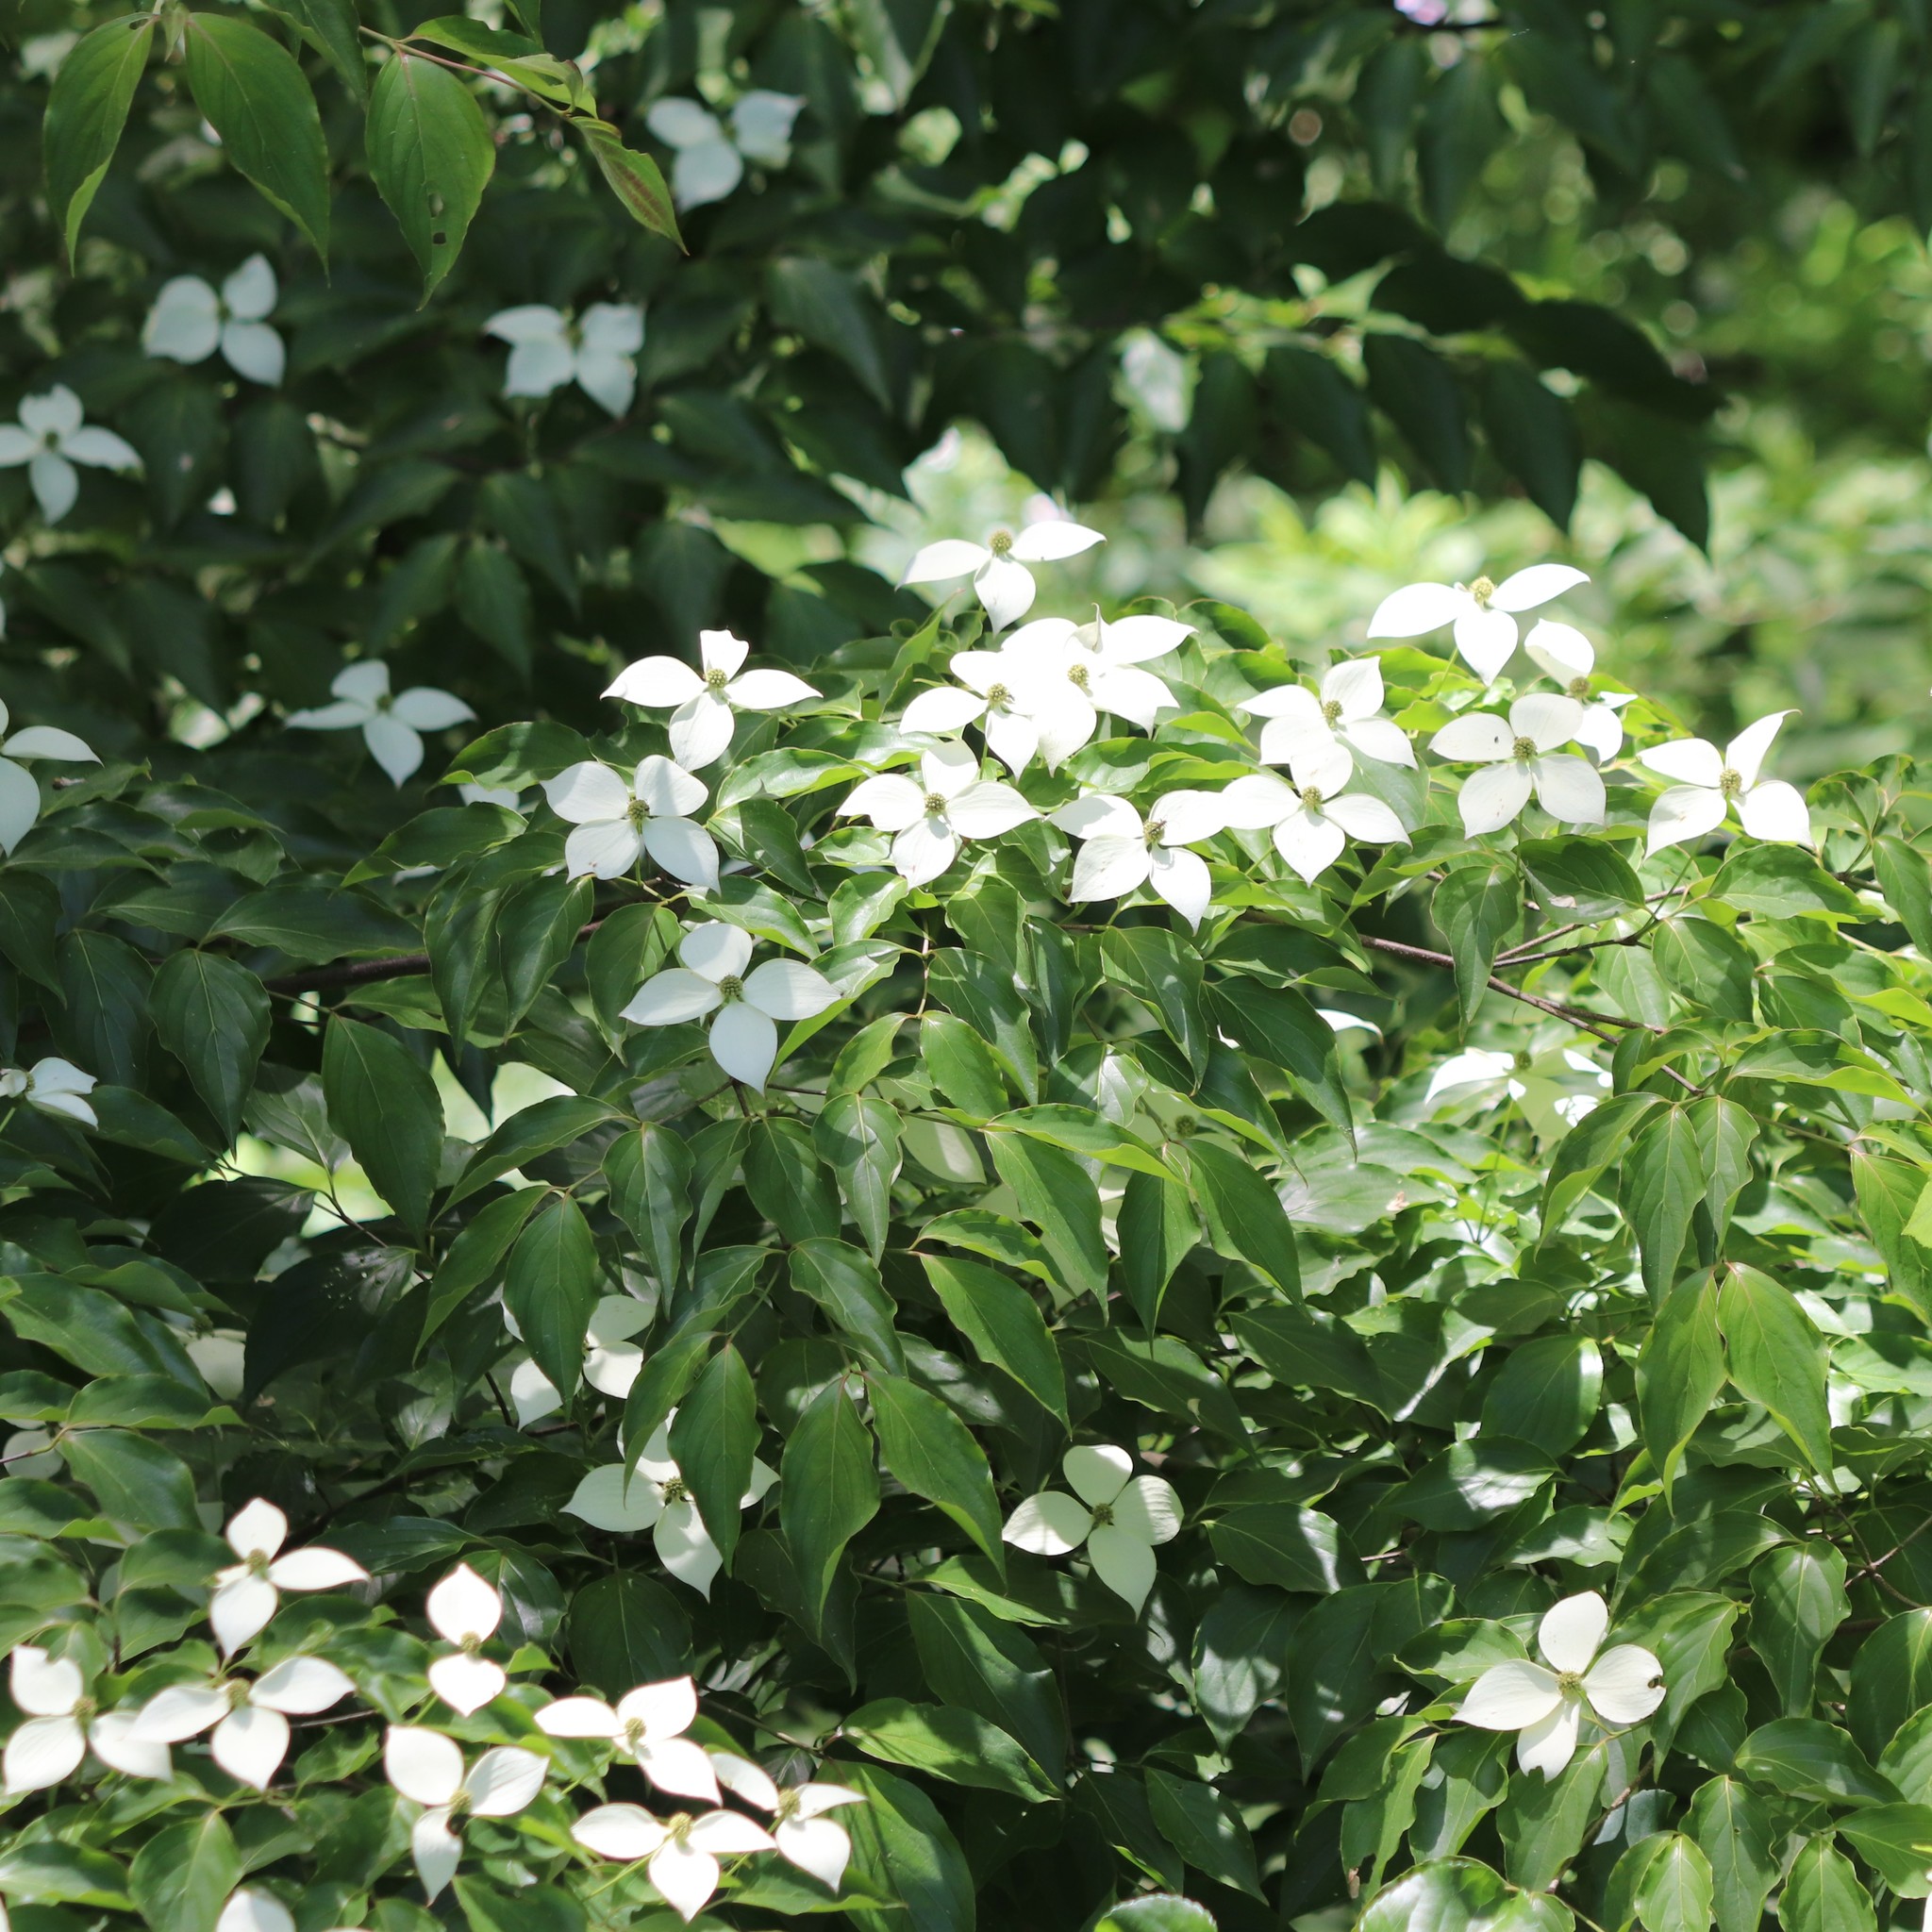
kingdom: Plantae
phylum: Tracheophyta
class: Magnoliopsida
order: Cornales
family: Cornaceae
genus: Cornus
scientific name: Cornus kousa
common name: Japanese dogwood
